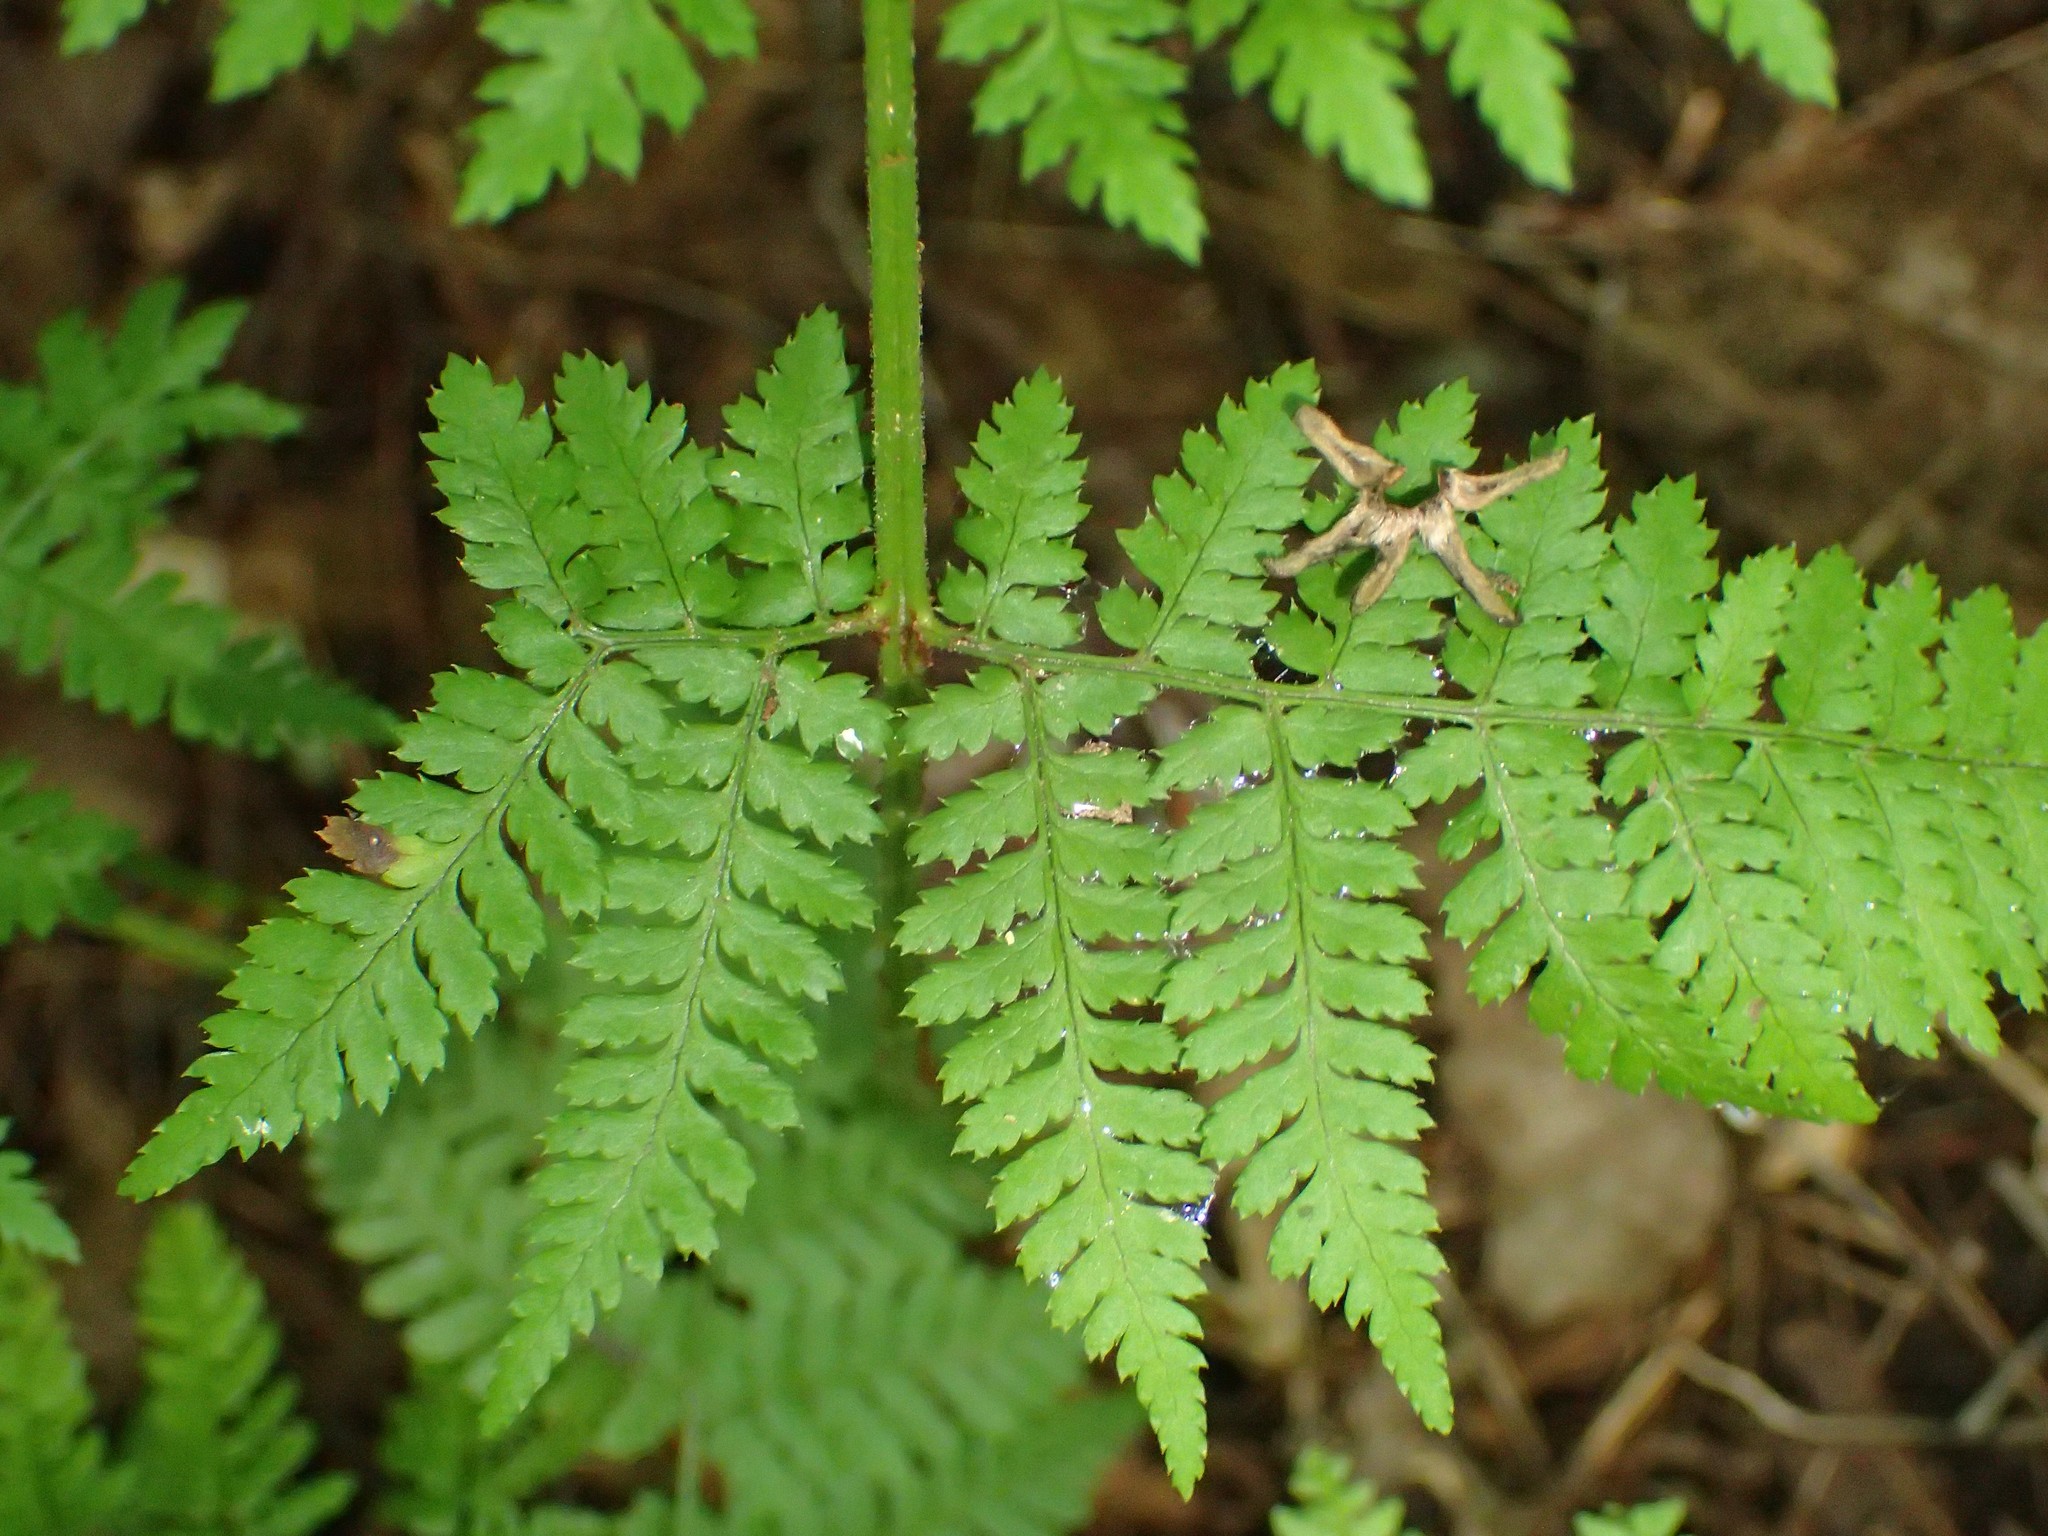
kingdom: Plantae
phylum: Tracheophyta
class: Polypodiopsida
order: Polypodiales
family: Dryopteridaceae
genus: Dryopteris
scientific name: Dryopteris carthusiana
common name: Narrow buckler-fern
